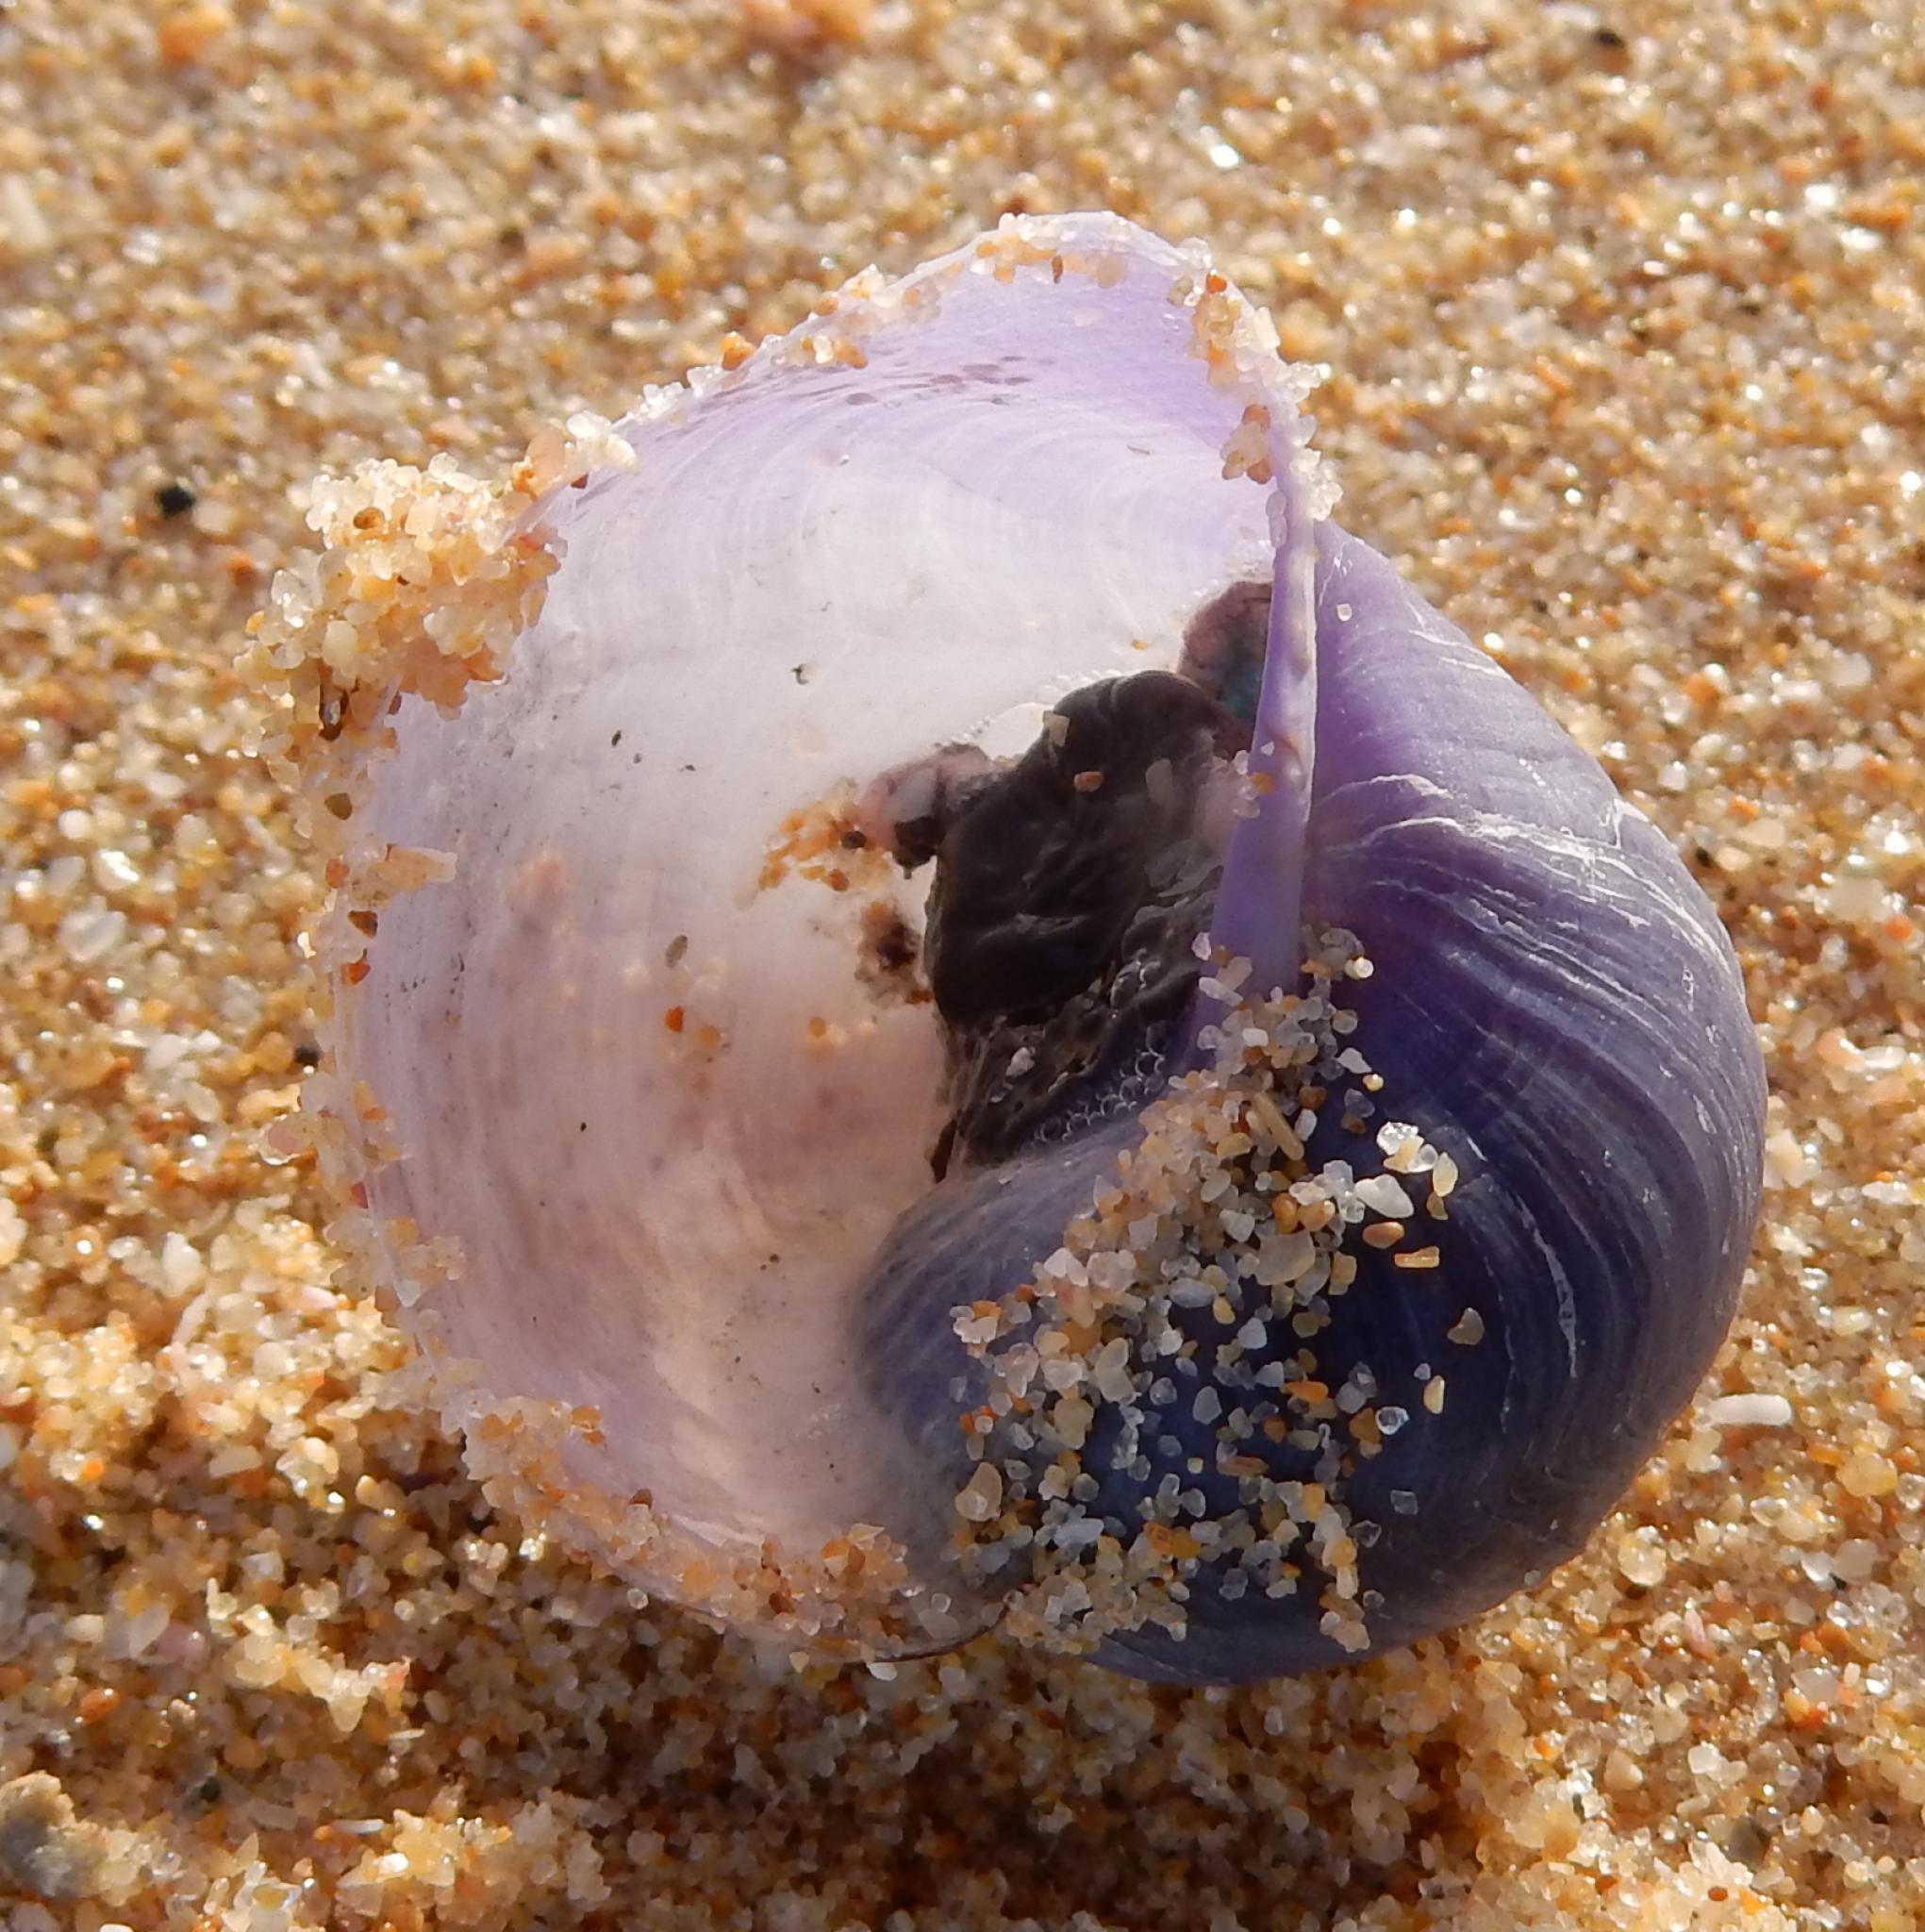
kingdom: Animalia
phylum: Mollusca
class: Gastropoda
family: Epitoniidae
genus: Janthina
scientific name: Janthina pallida
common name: Pale janthina
